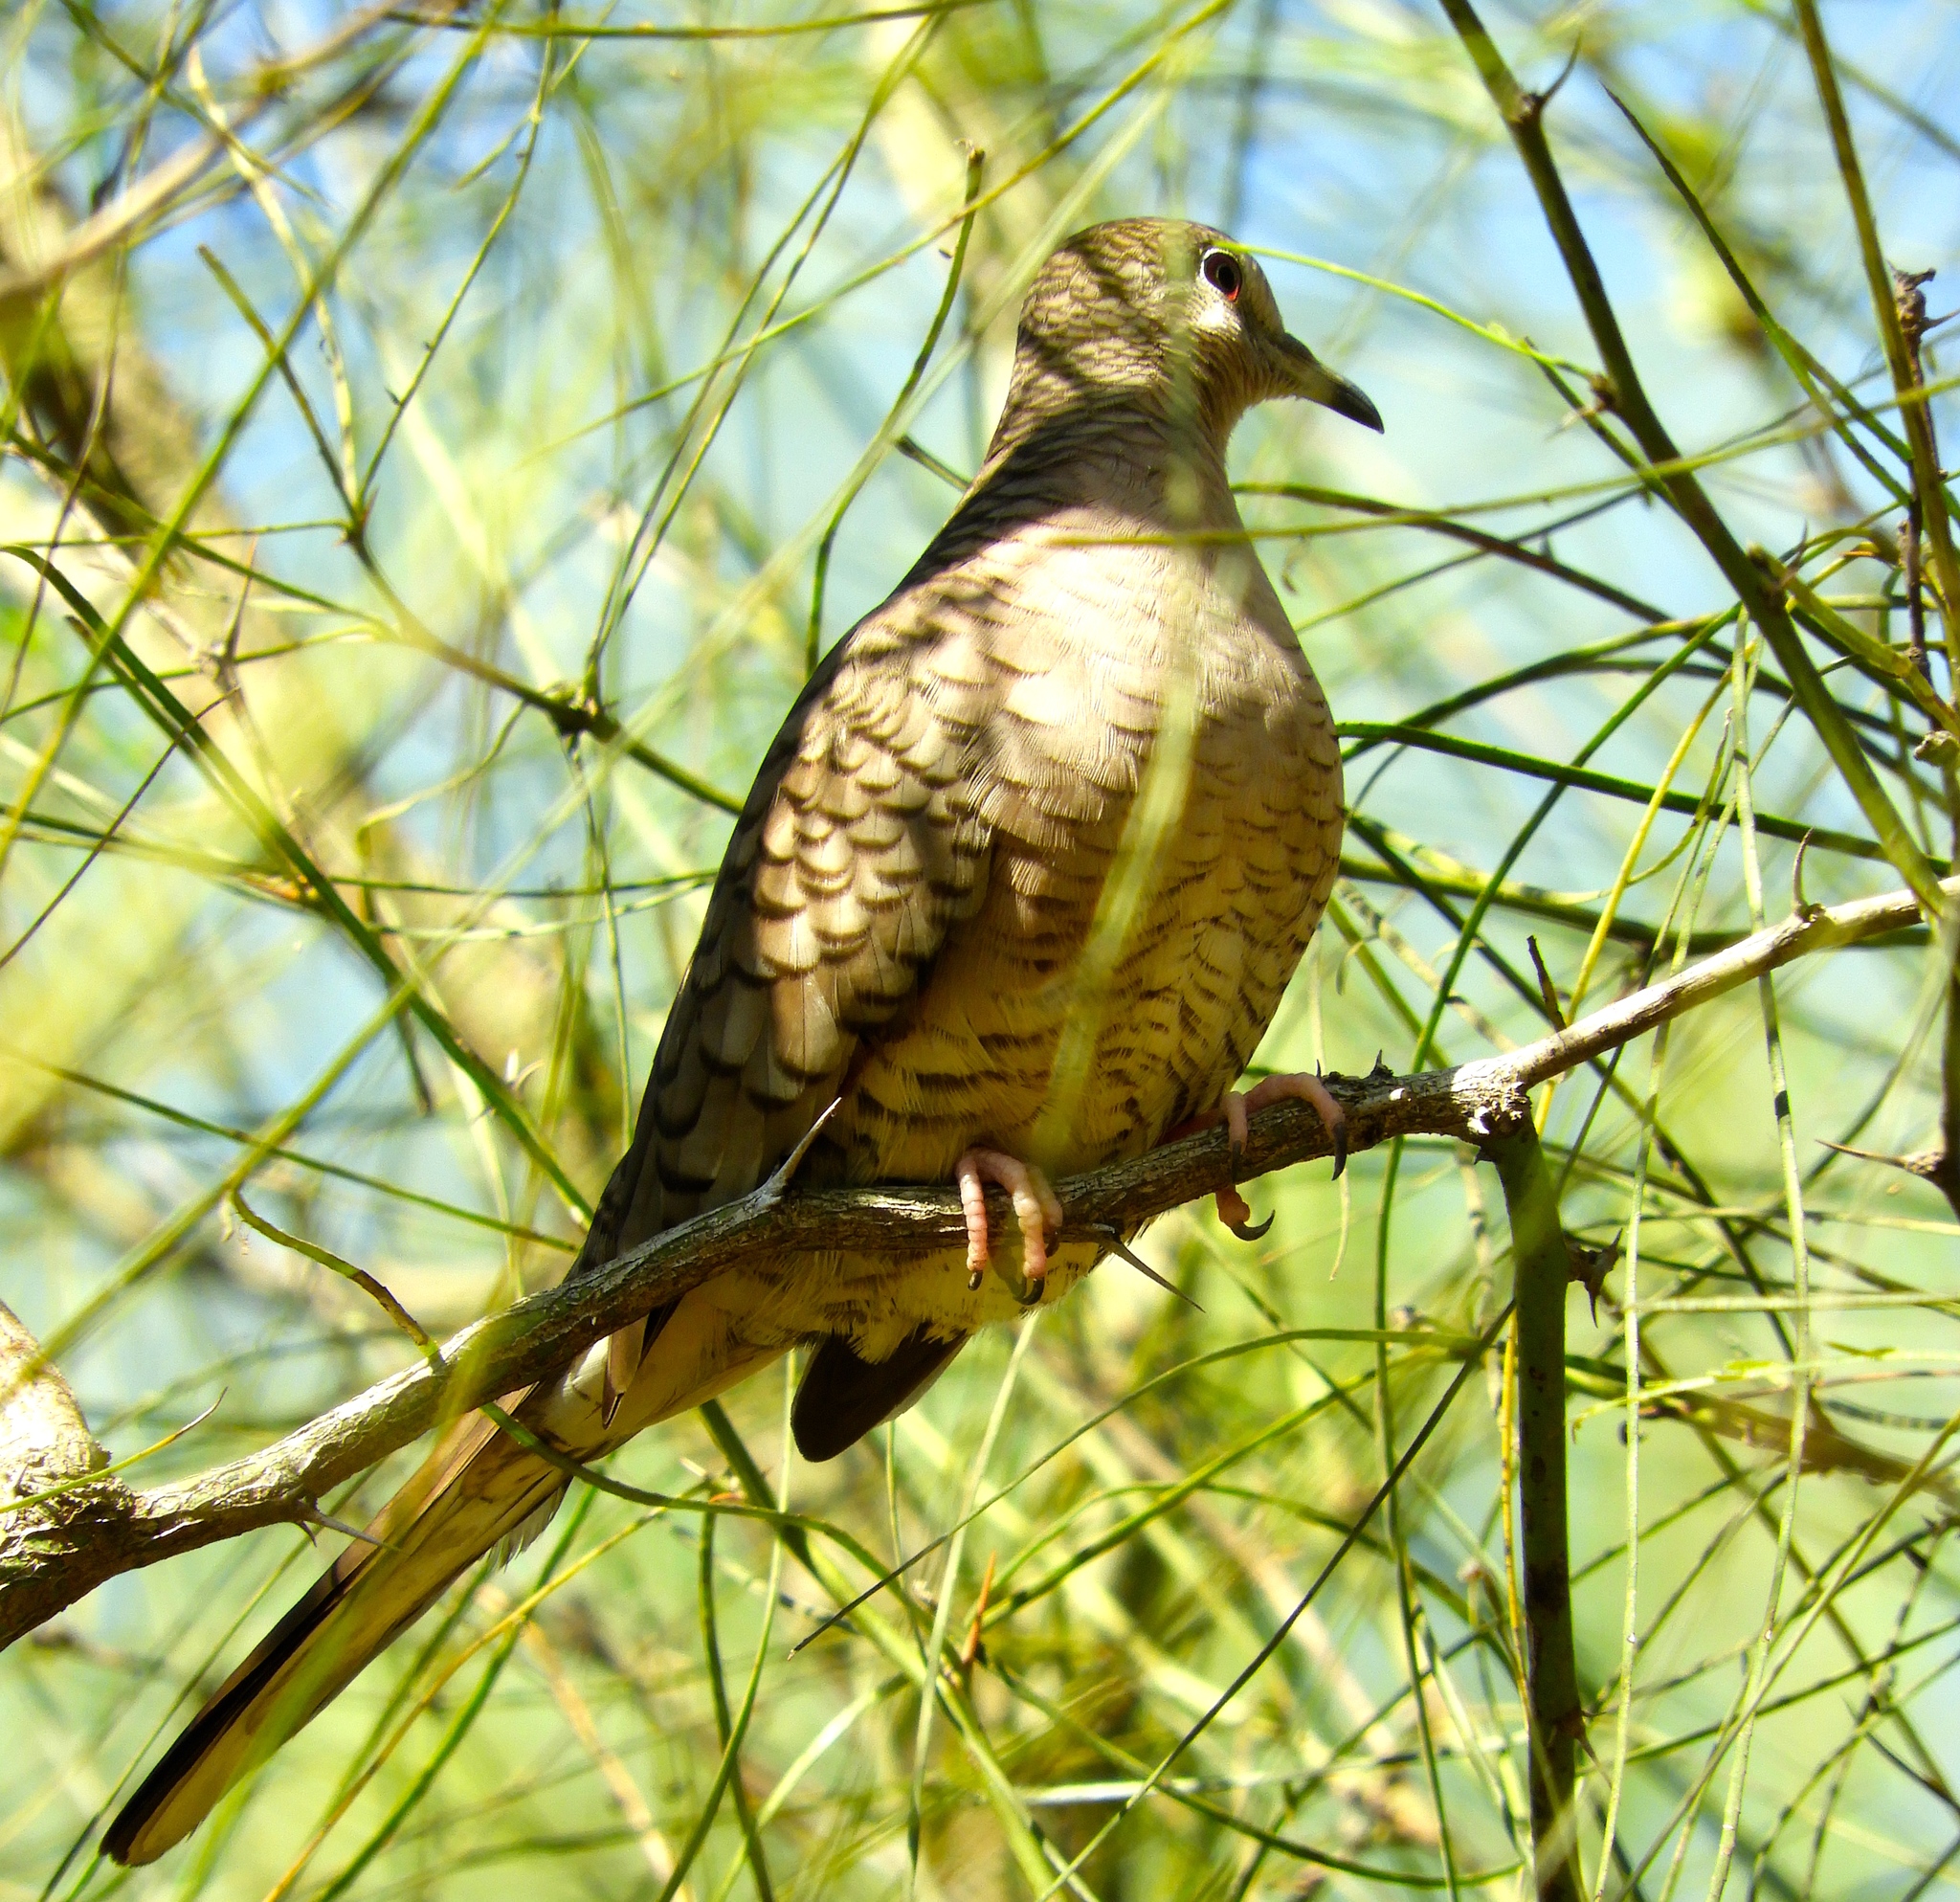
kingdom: Animalia
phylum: Chordata
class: Aves
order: Columbiformes
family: Columbidae
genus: Columbina
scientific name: Columbina inca
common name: Inca dove
